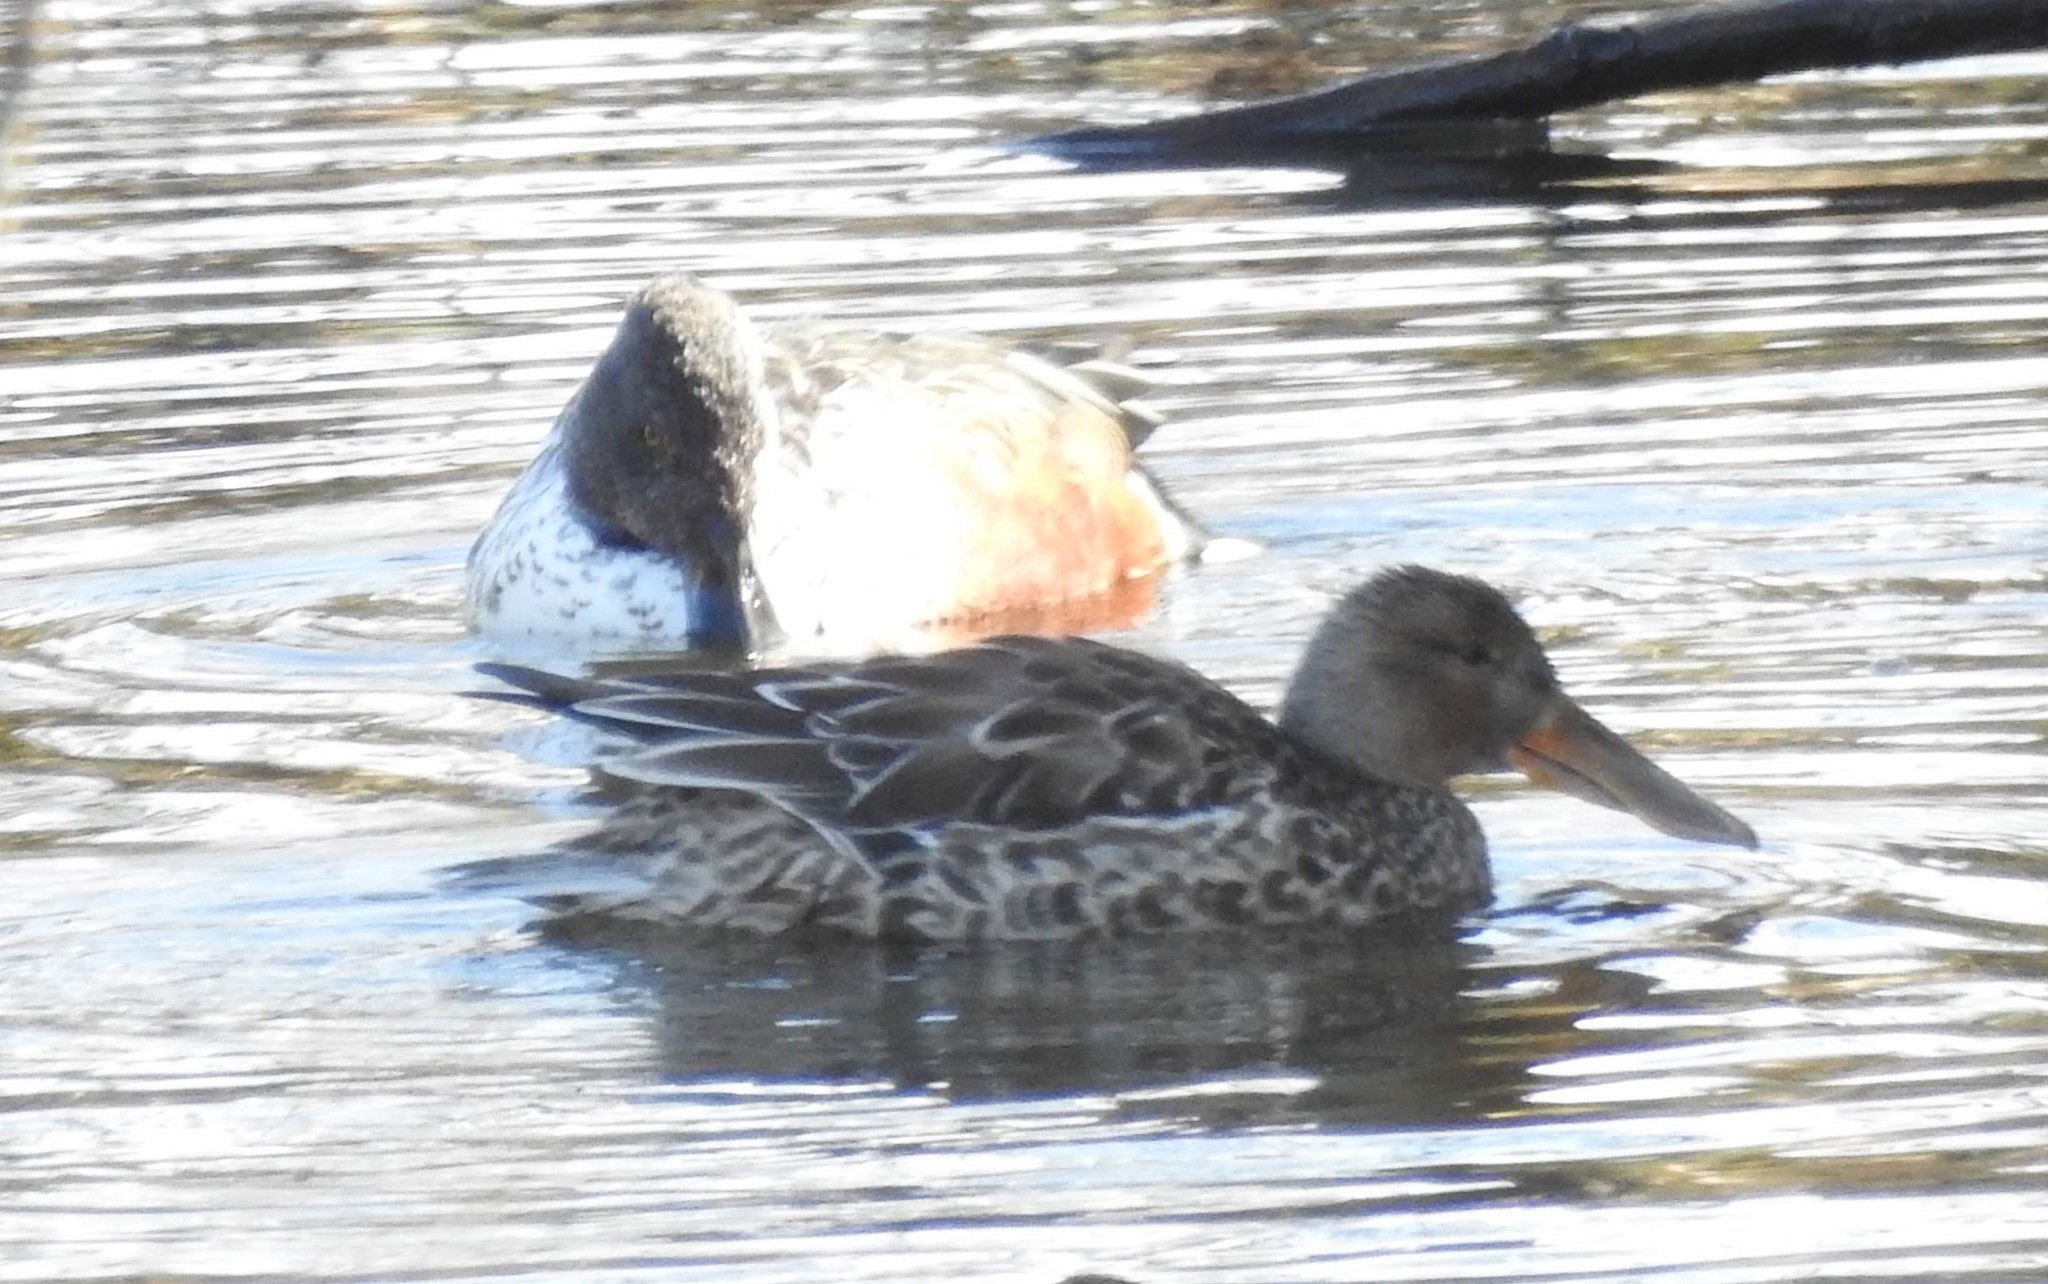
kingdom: Animalia
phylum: Chordata
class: Aves
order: Anseriformes
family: Anatidae
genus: Spatula
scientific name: Spatula clypeata
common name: Northern shoveler
